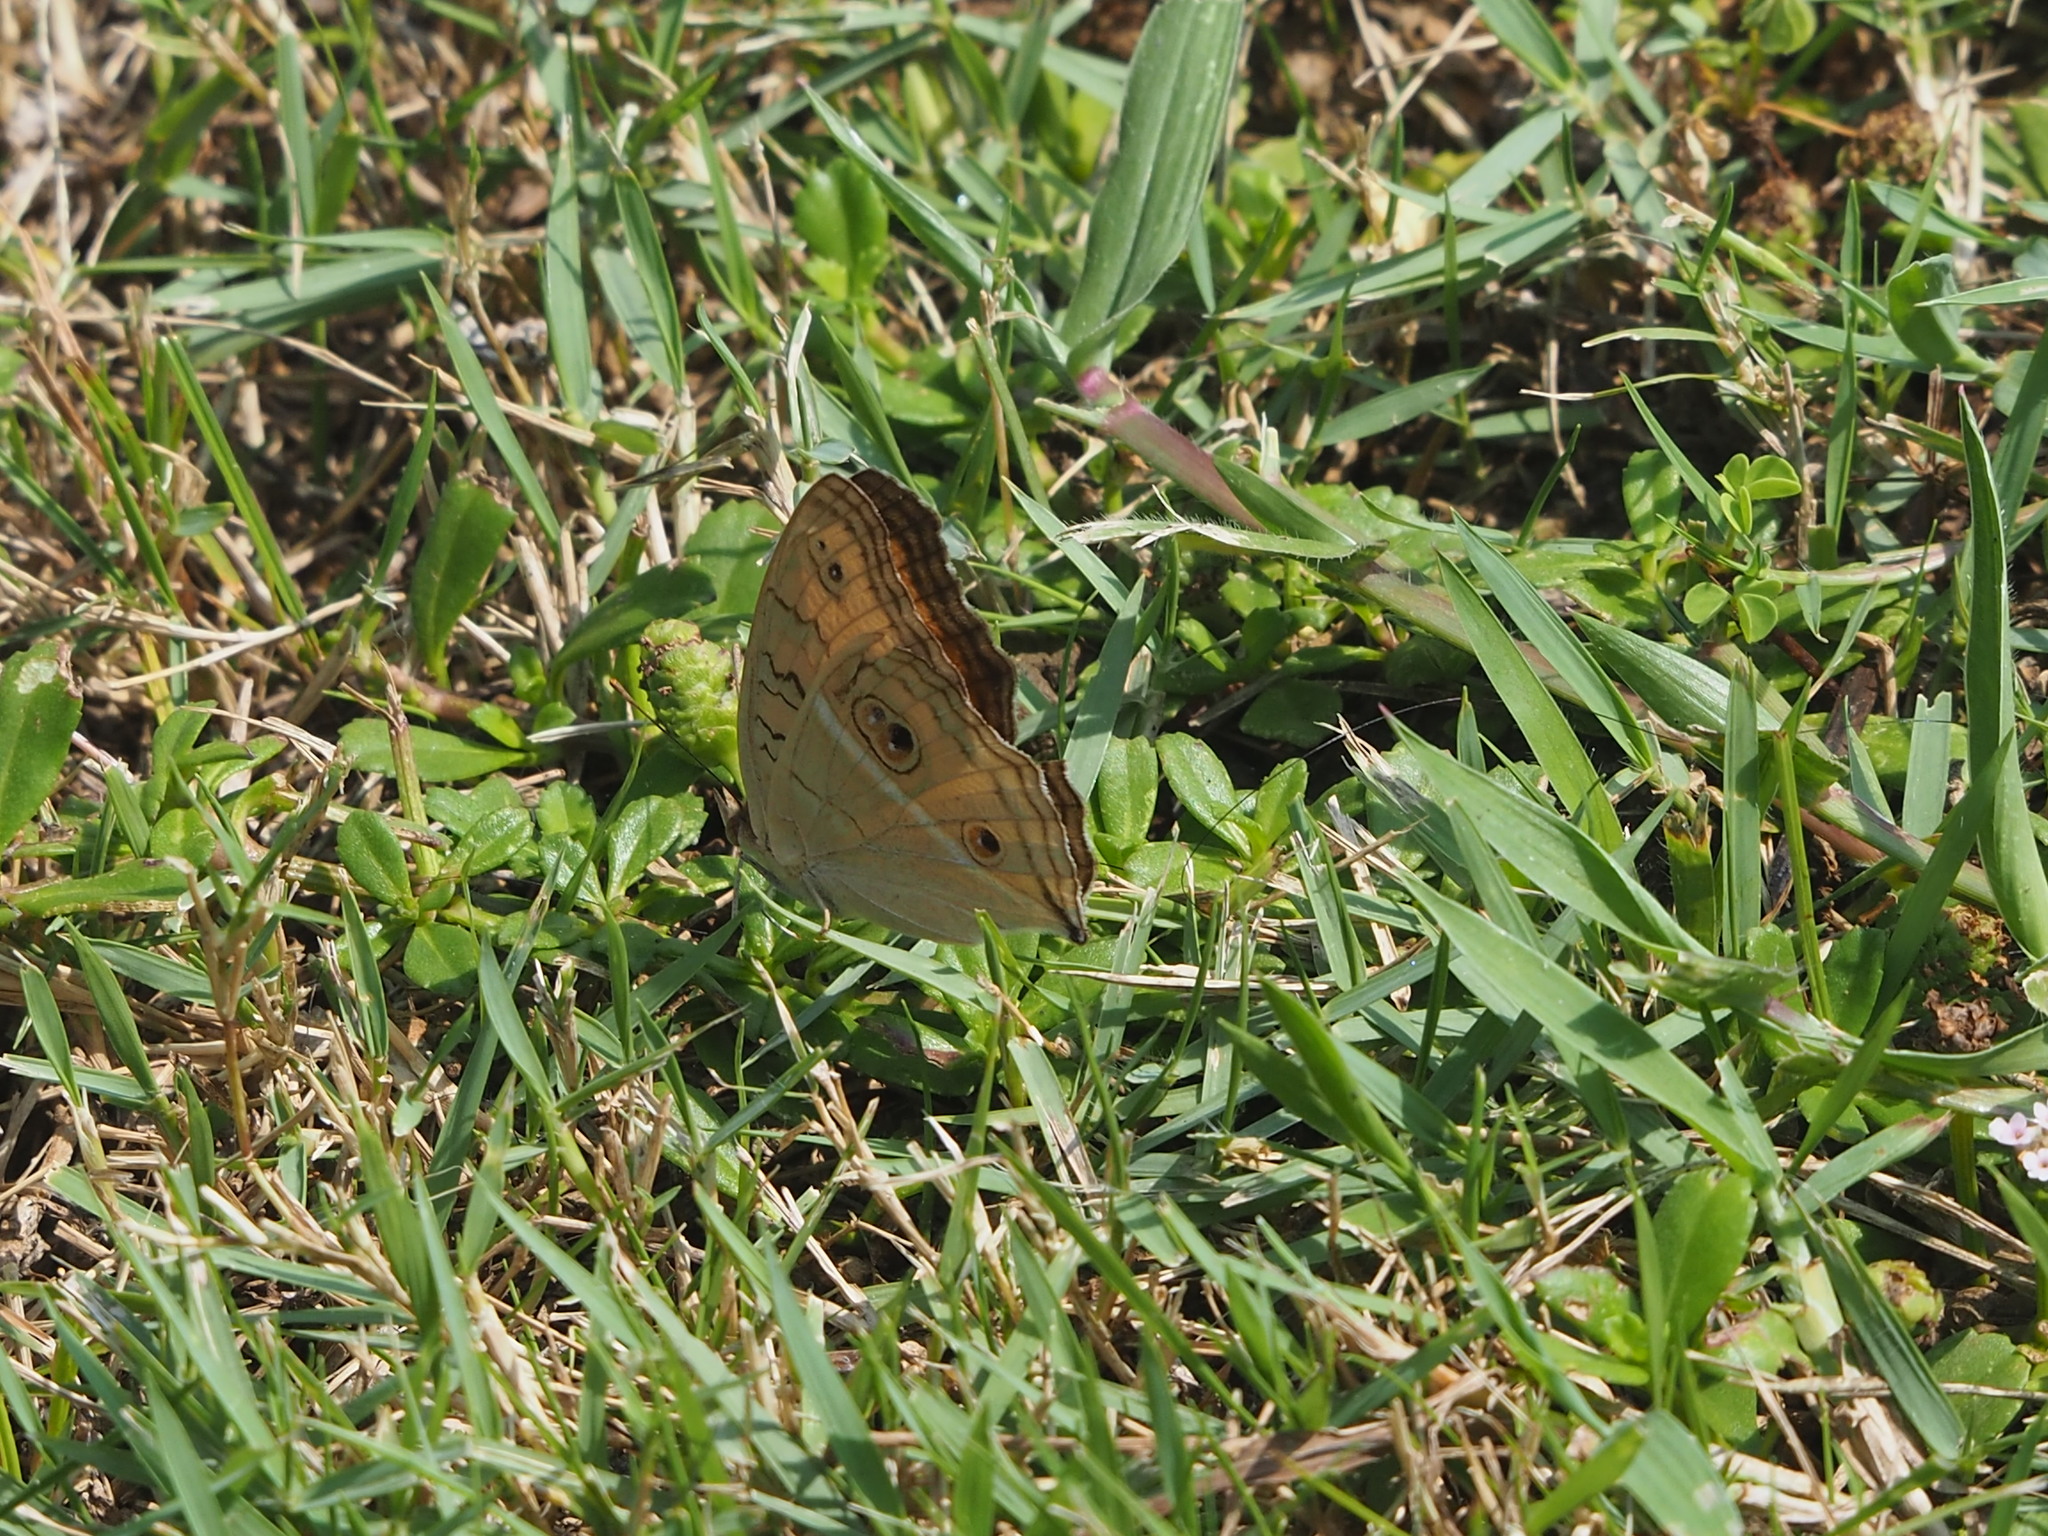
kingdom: Animalia
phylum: Arthropoda
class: Insecta
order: Lepidoptera
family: Nymphalidae
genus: Junonia
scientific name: Junonia almana
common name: Peacock pansy
